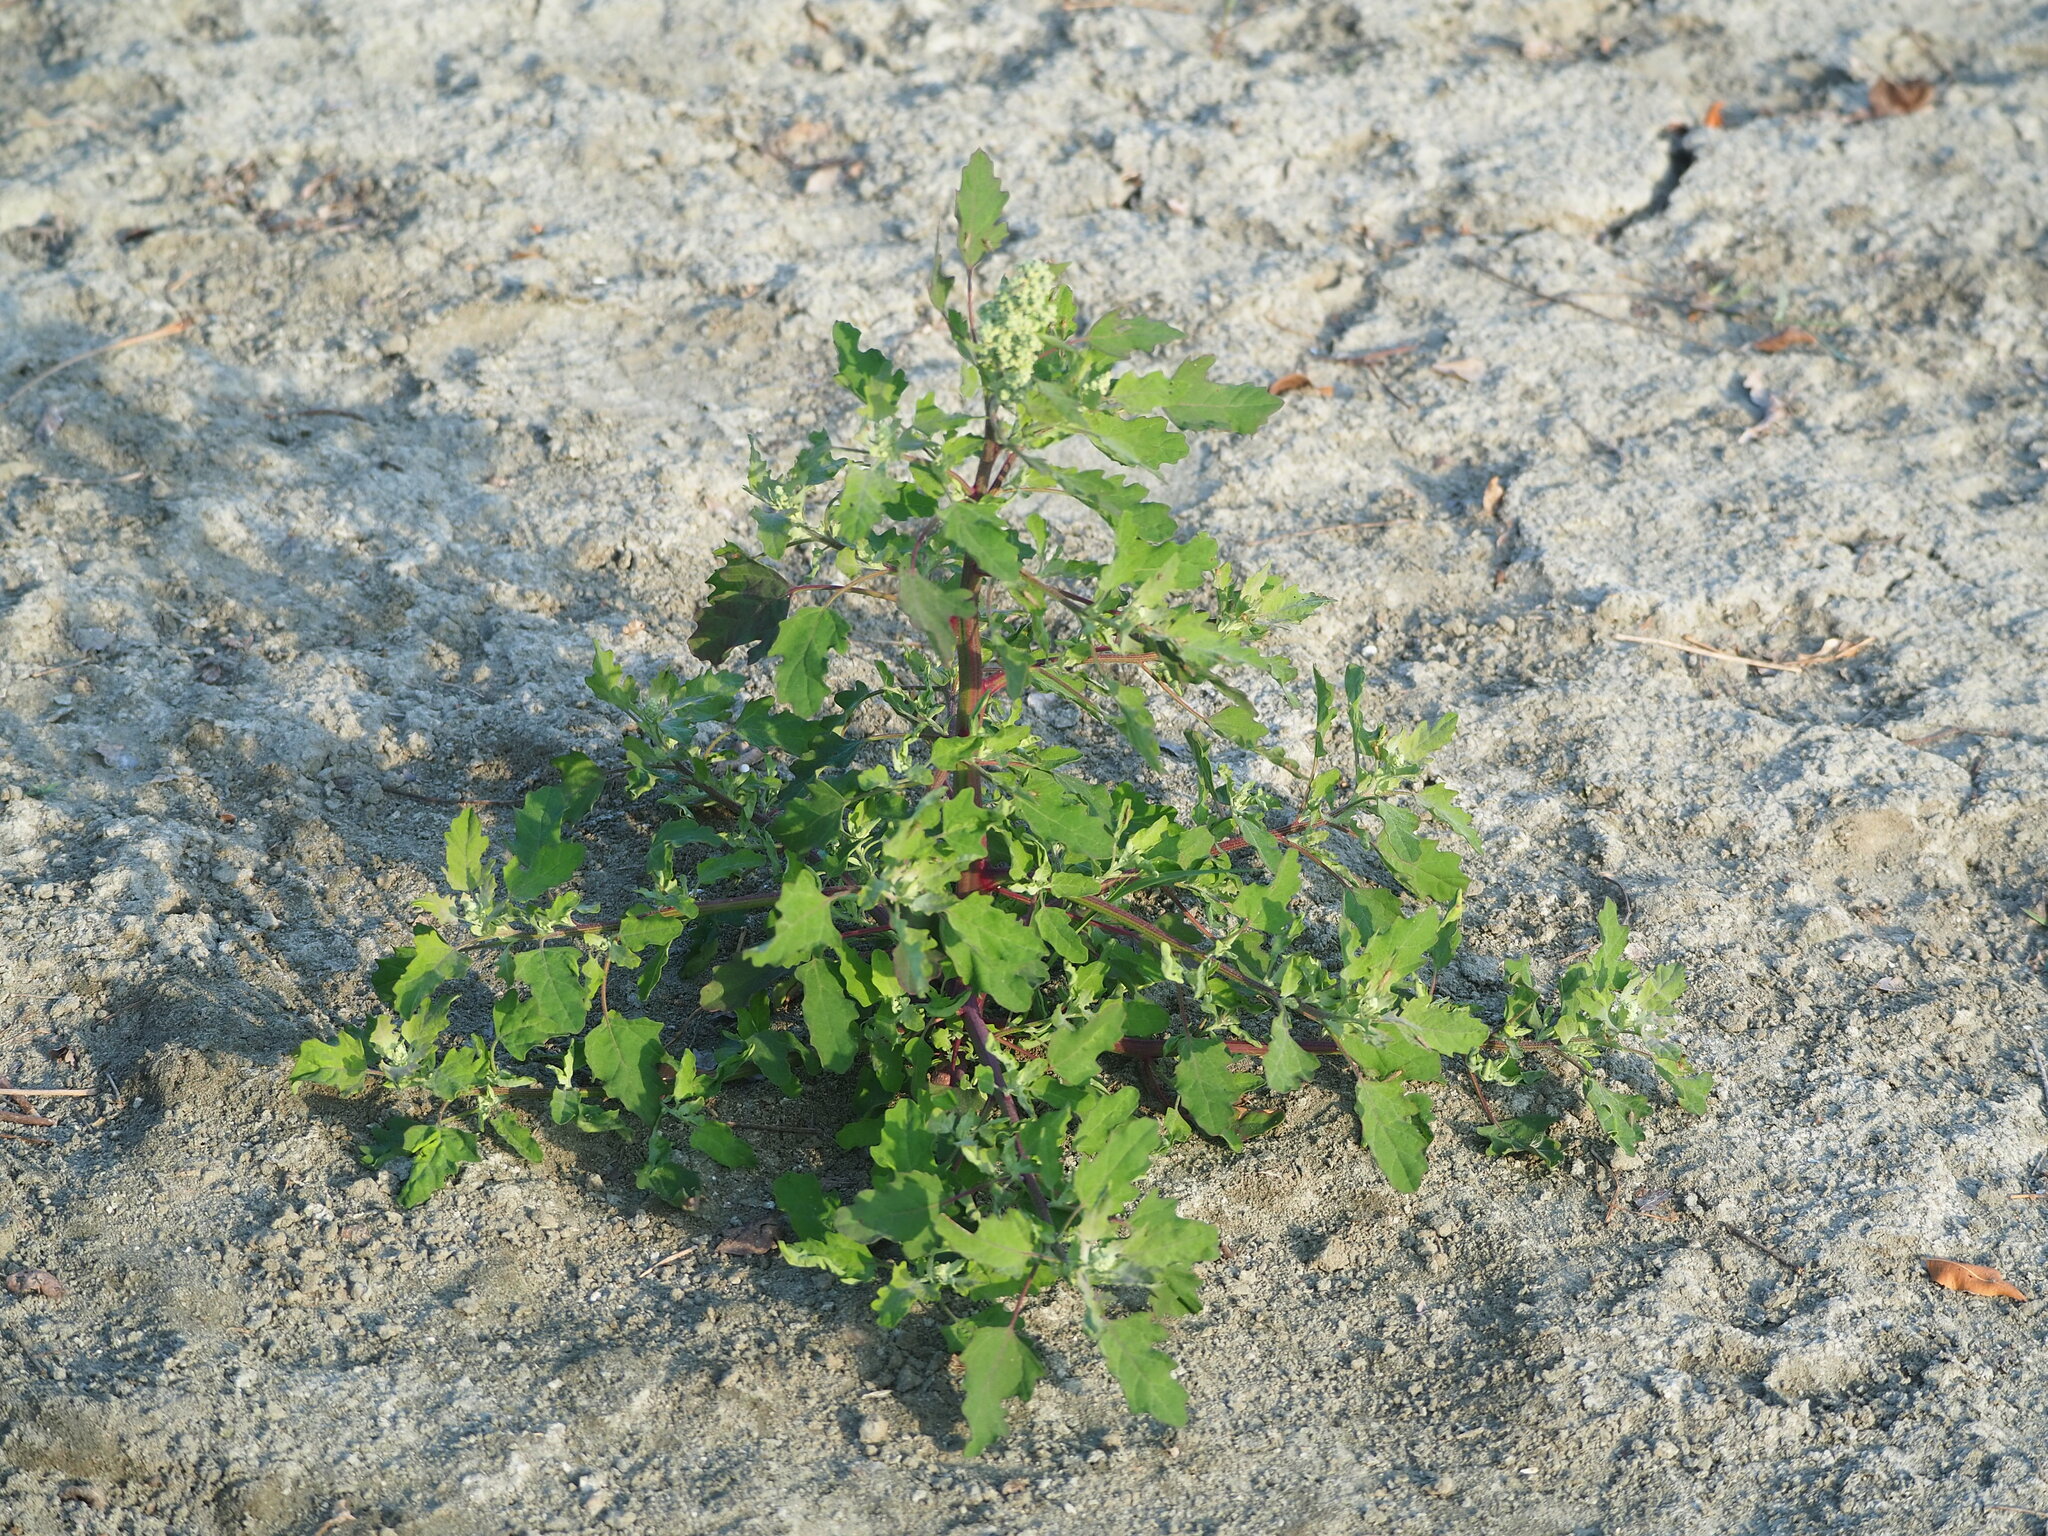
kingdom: Plantae
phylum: Tracheophyta
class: Magnoliopsida
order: Caryophyllales
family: Amaranthaceae
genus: Chenopodium
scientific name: Chenopodium ficifolium
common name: Fig-leaved goosefoot
